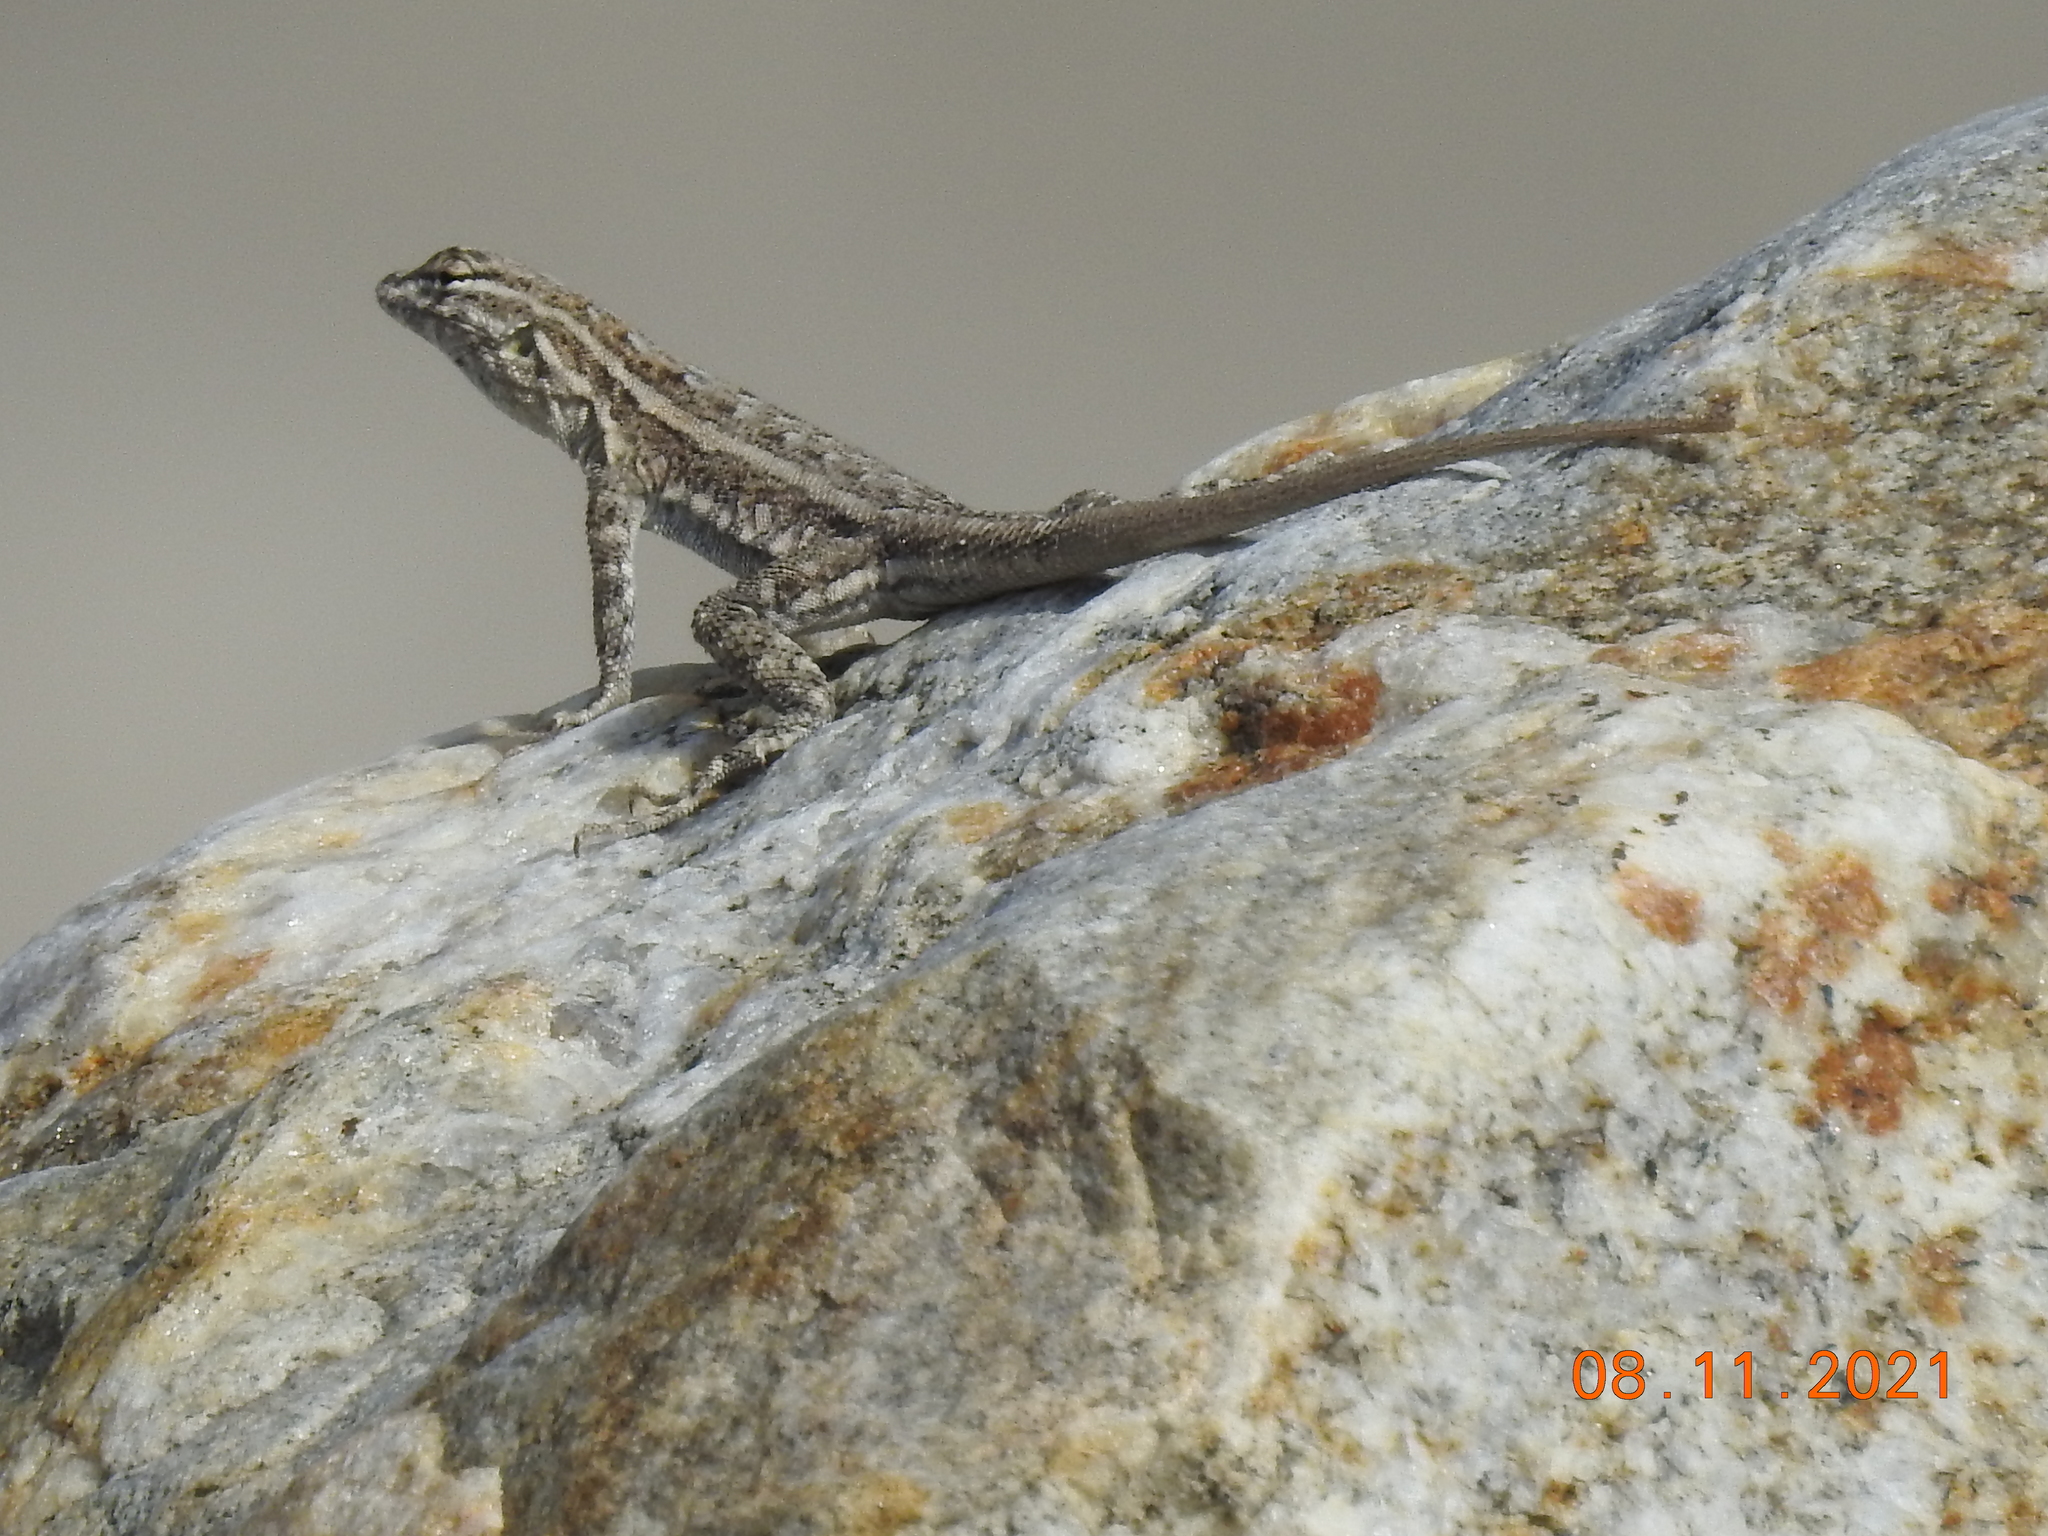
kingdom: Animalia
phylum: Chordata
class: Squamata
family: Phrynosomatidae
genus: Uta
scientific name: Uta stansburiana
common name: Side-blotched lizard
